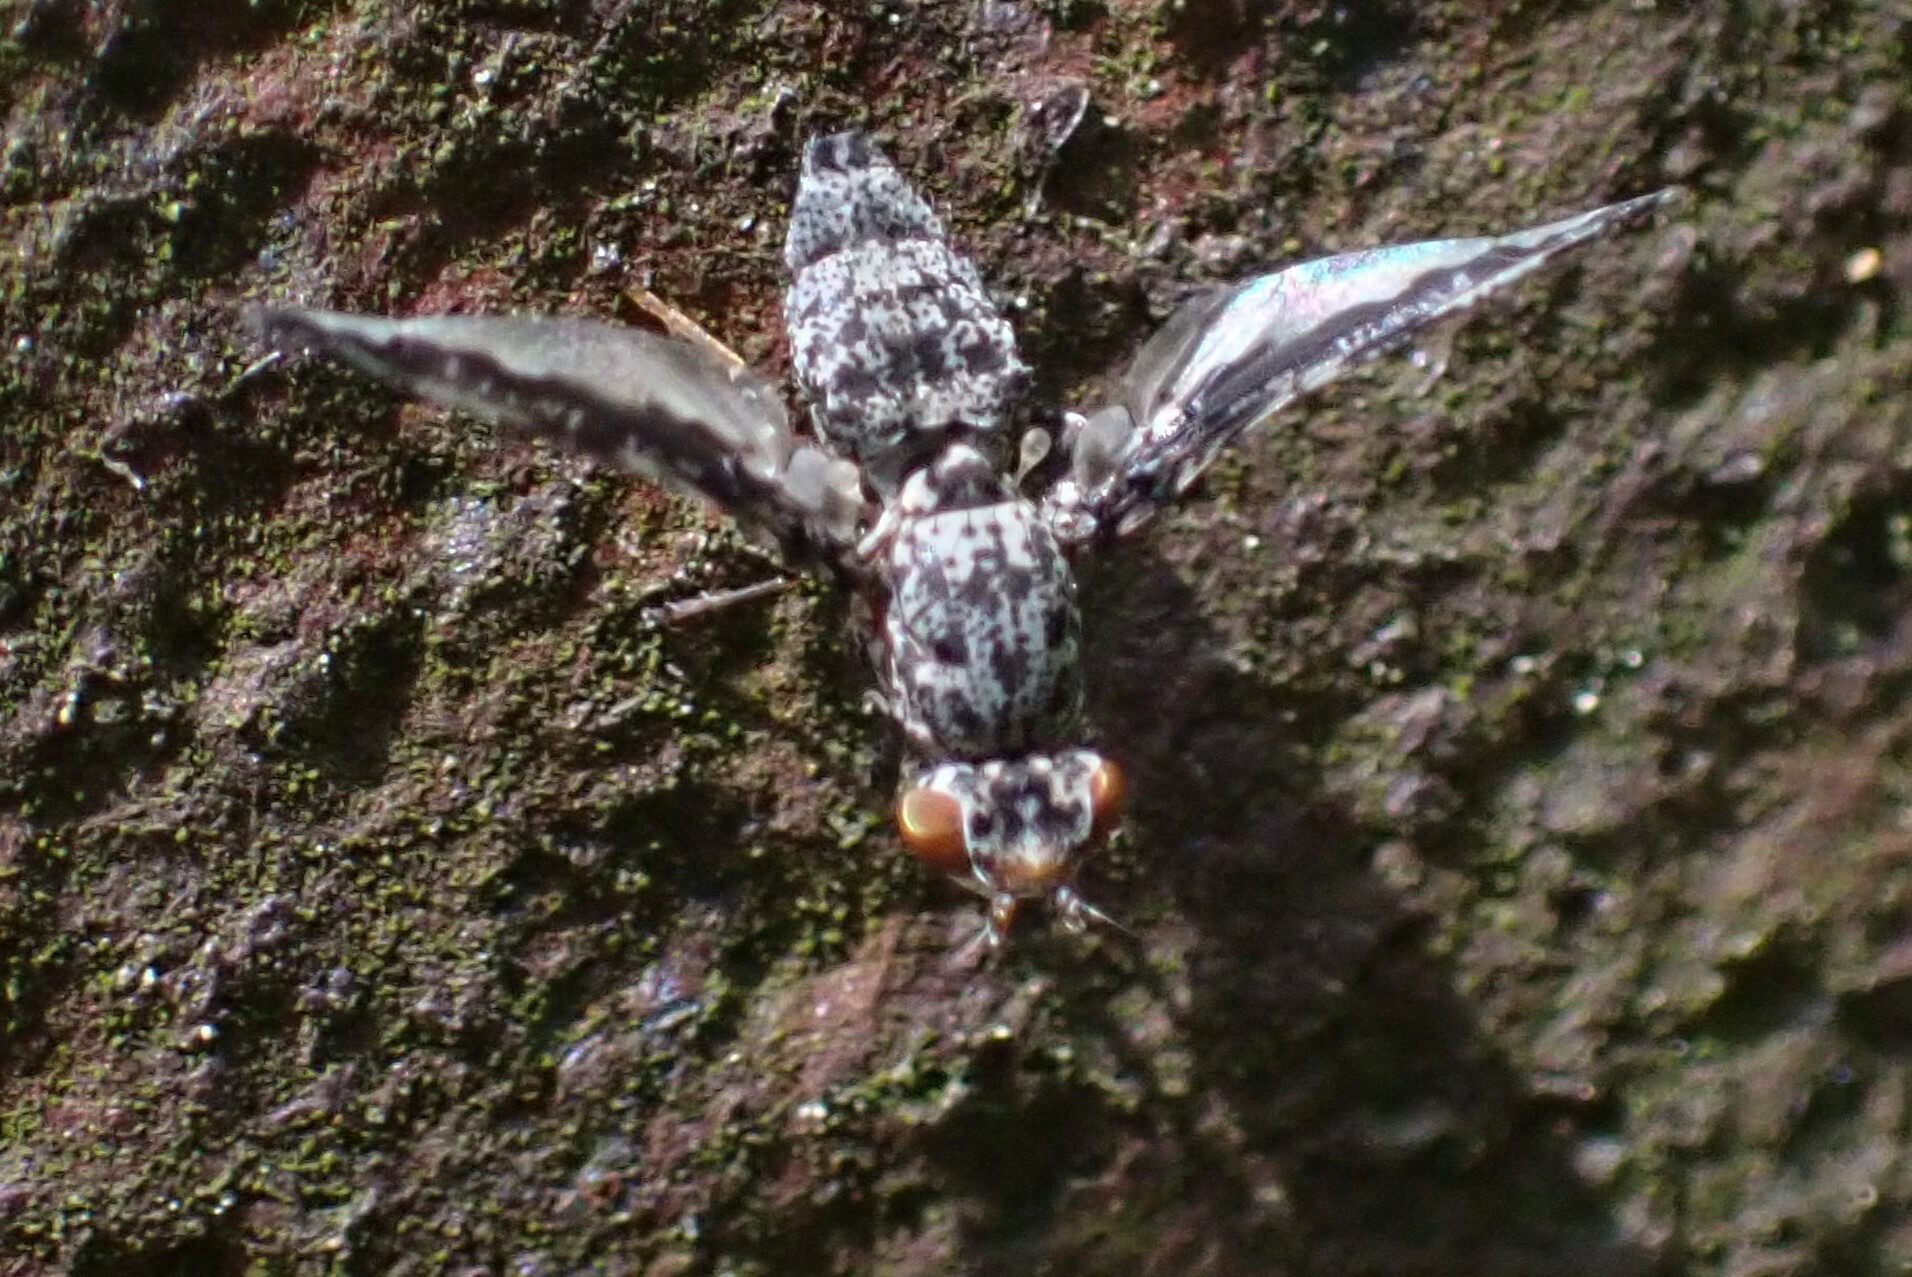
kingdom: Animalia
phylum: Arthropoda
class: Insecta
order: Diptera
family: Ulidiidae
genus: Callopistromyia
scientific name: Callopistromyia strigula
